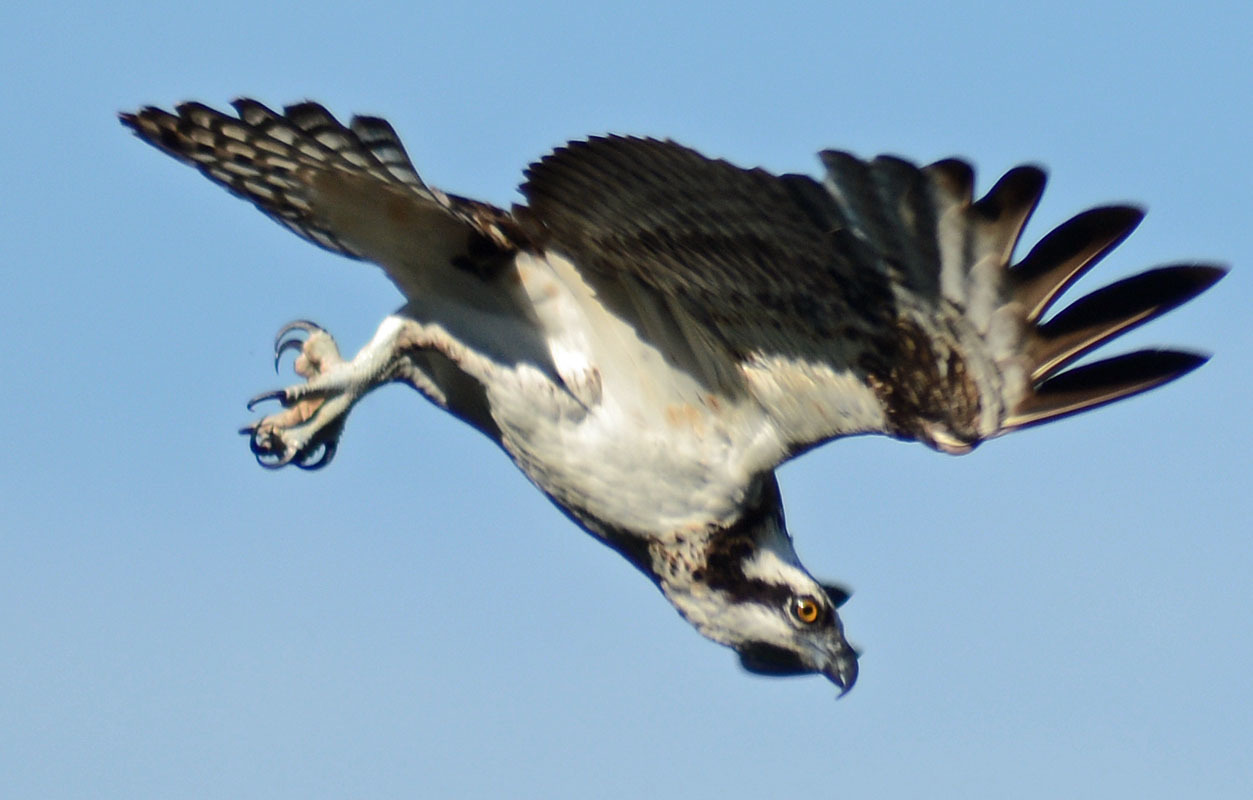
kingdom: Animalia
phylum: Chordata
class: Aves
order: Accipitriformes
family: Pandionidae
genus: Pandion
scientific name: Pandion haliaetus
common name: Osprey
